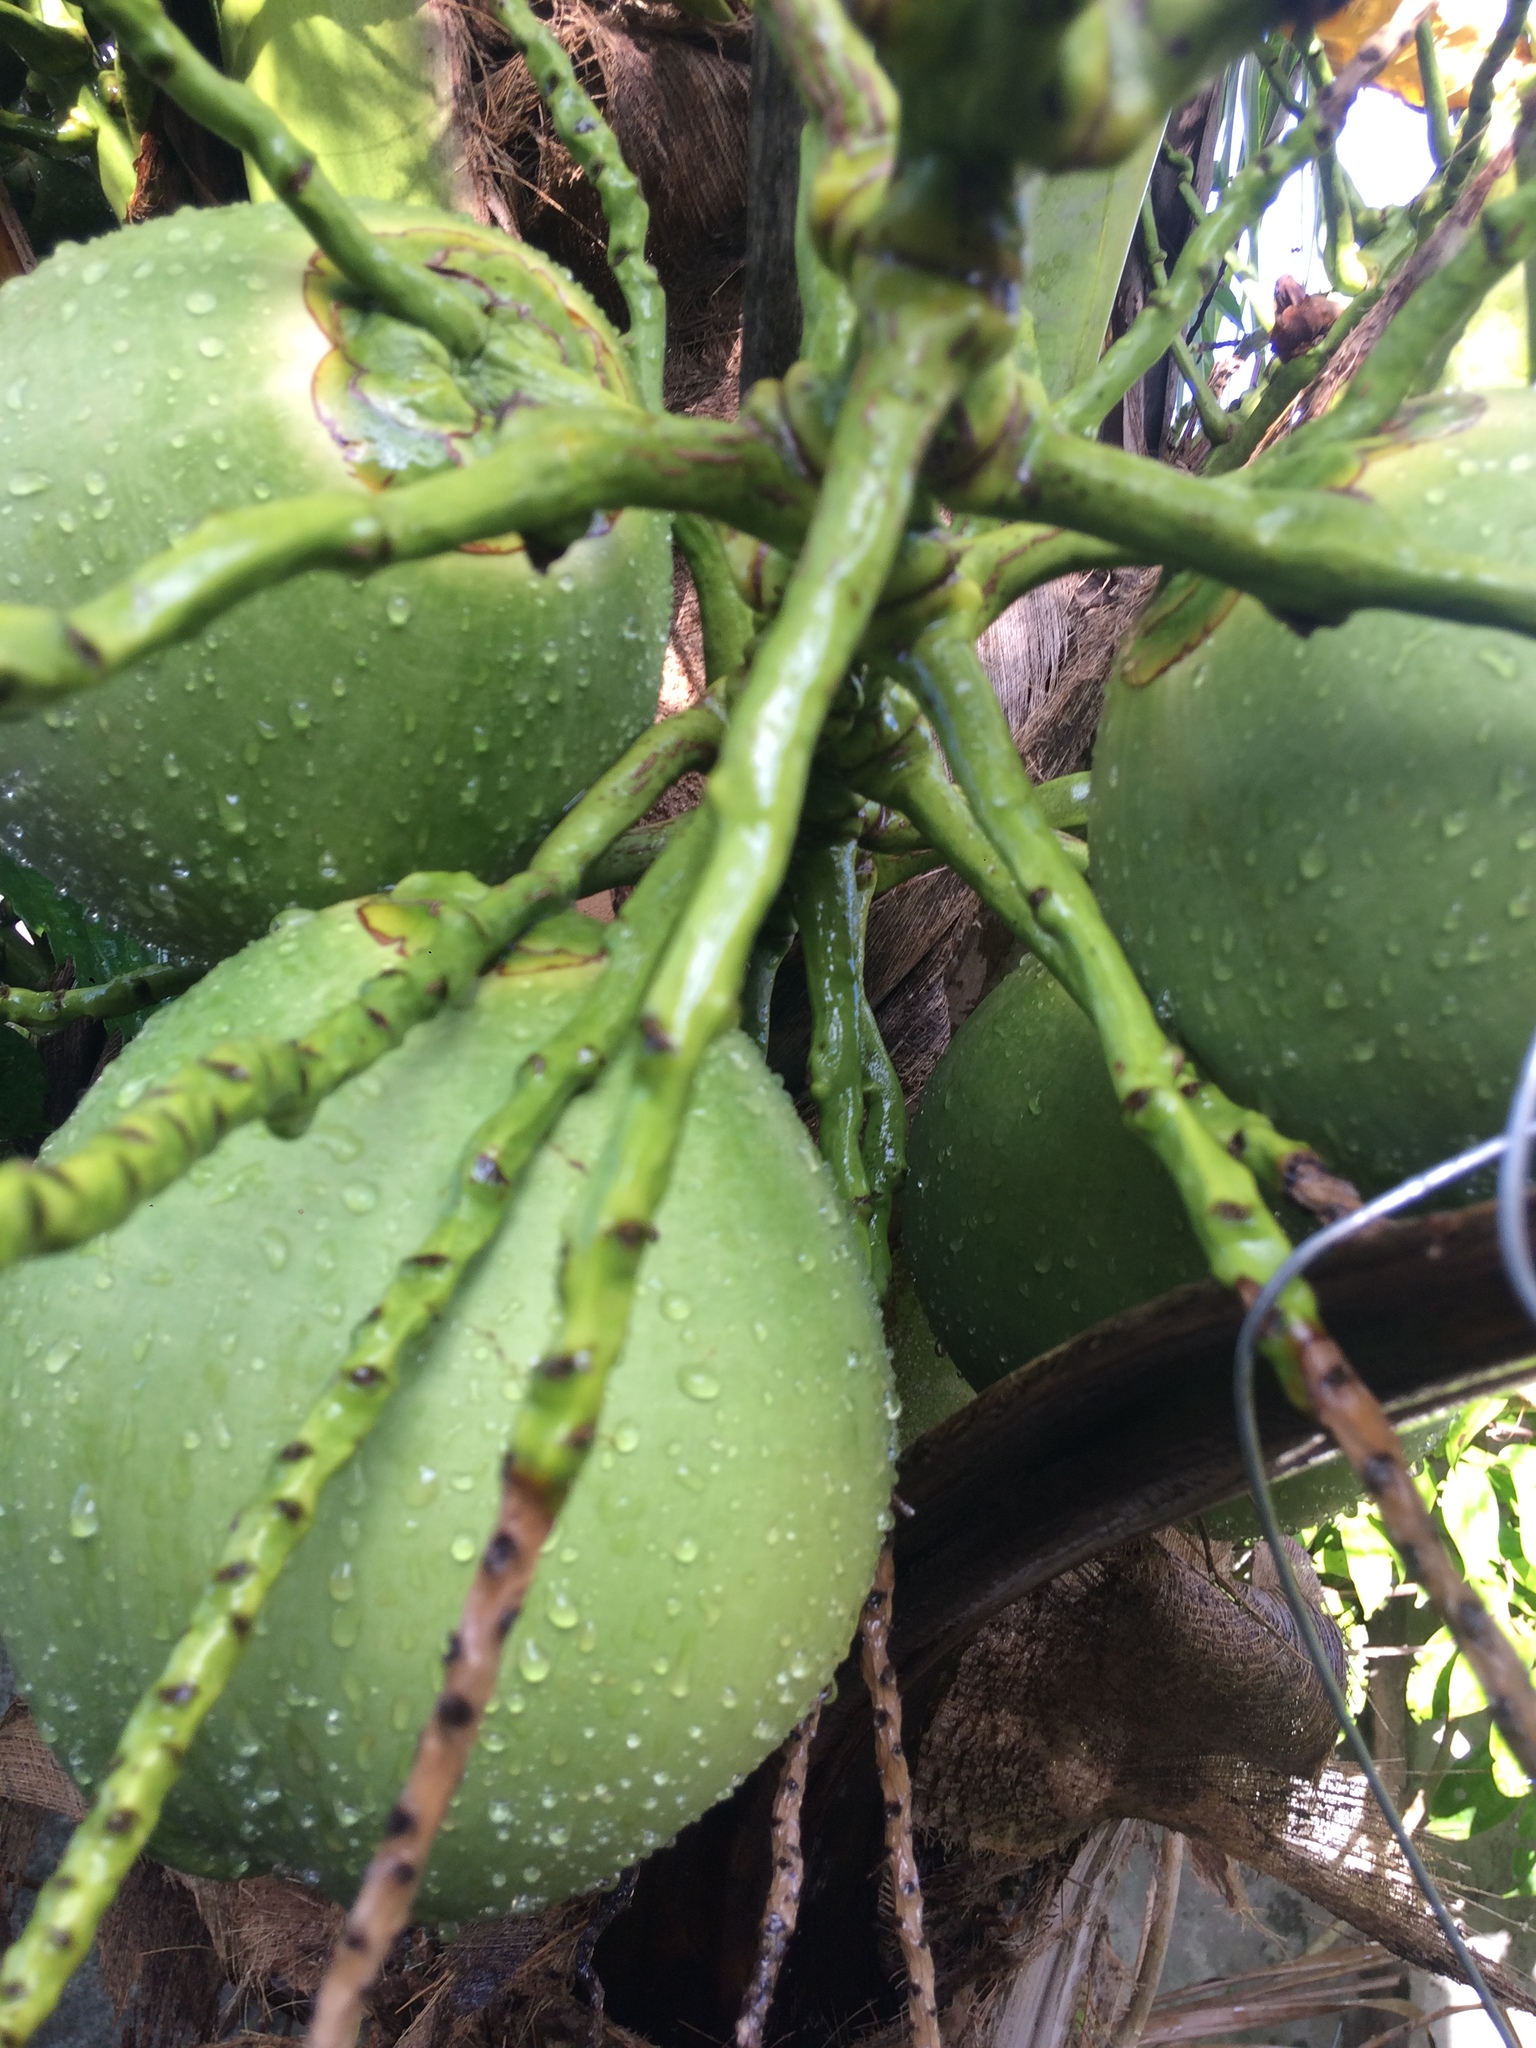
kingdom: Plantae
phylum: Tracheophyta
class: Liliopsida
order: Arecales
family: Arecaceae
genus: Cocos
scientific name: Cocos nucifera
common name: Coconut palm
